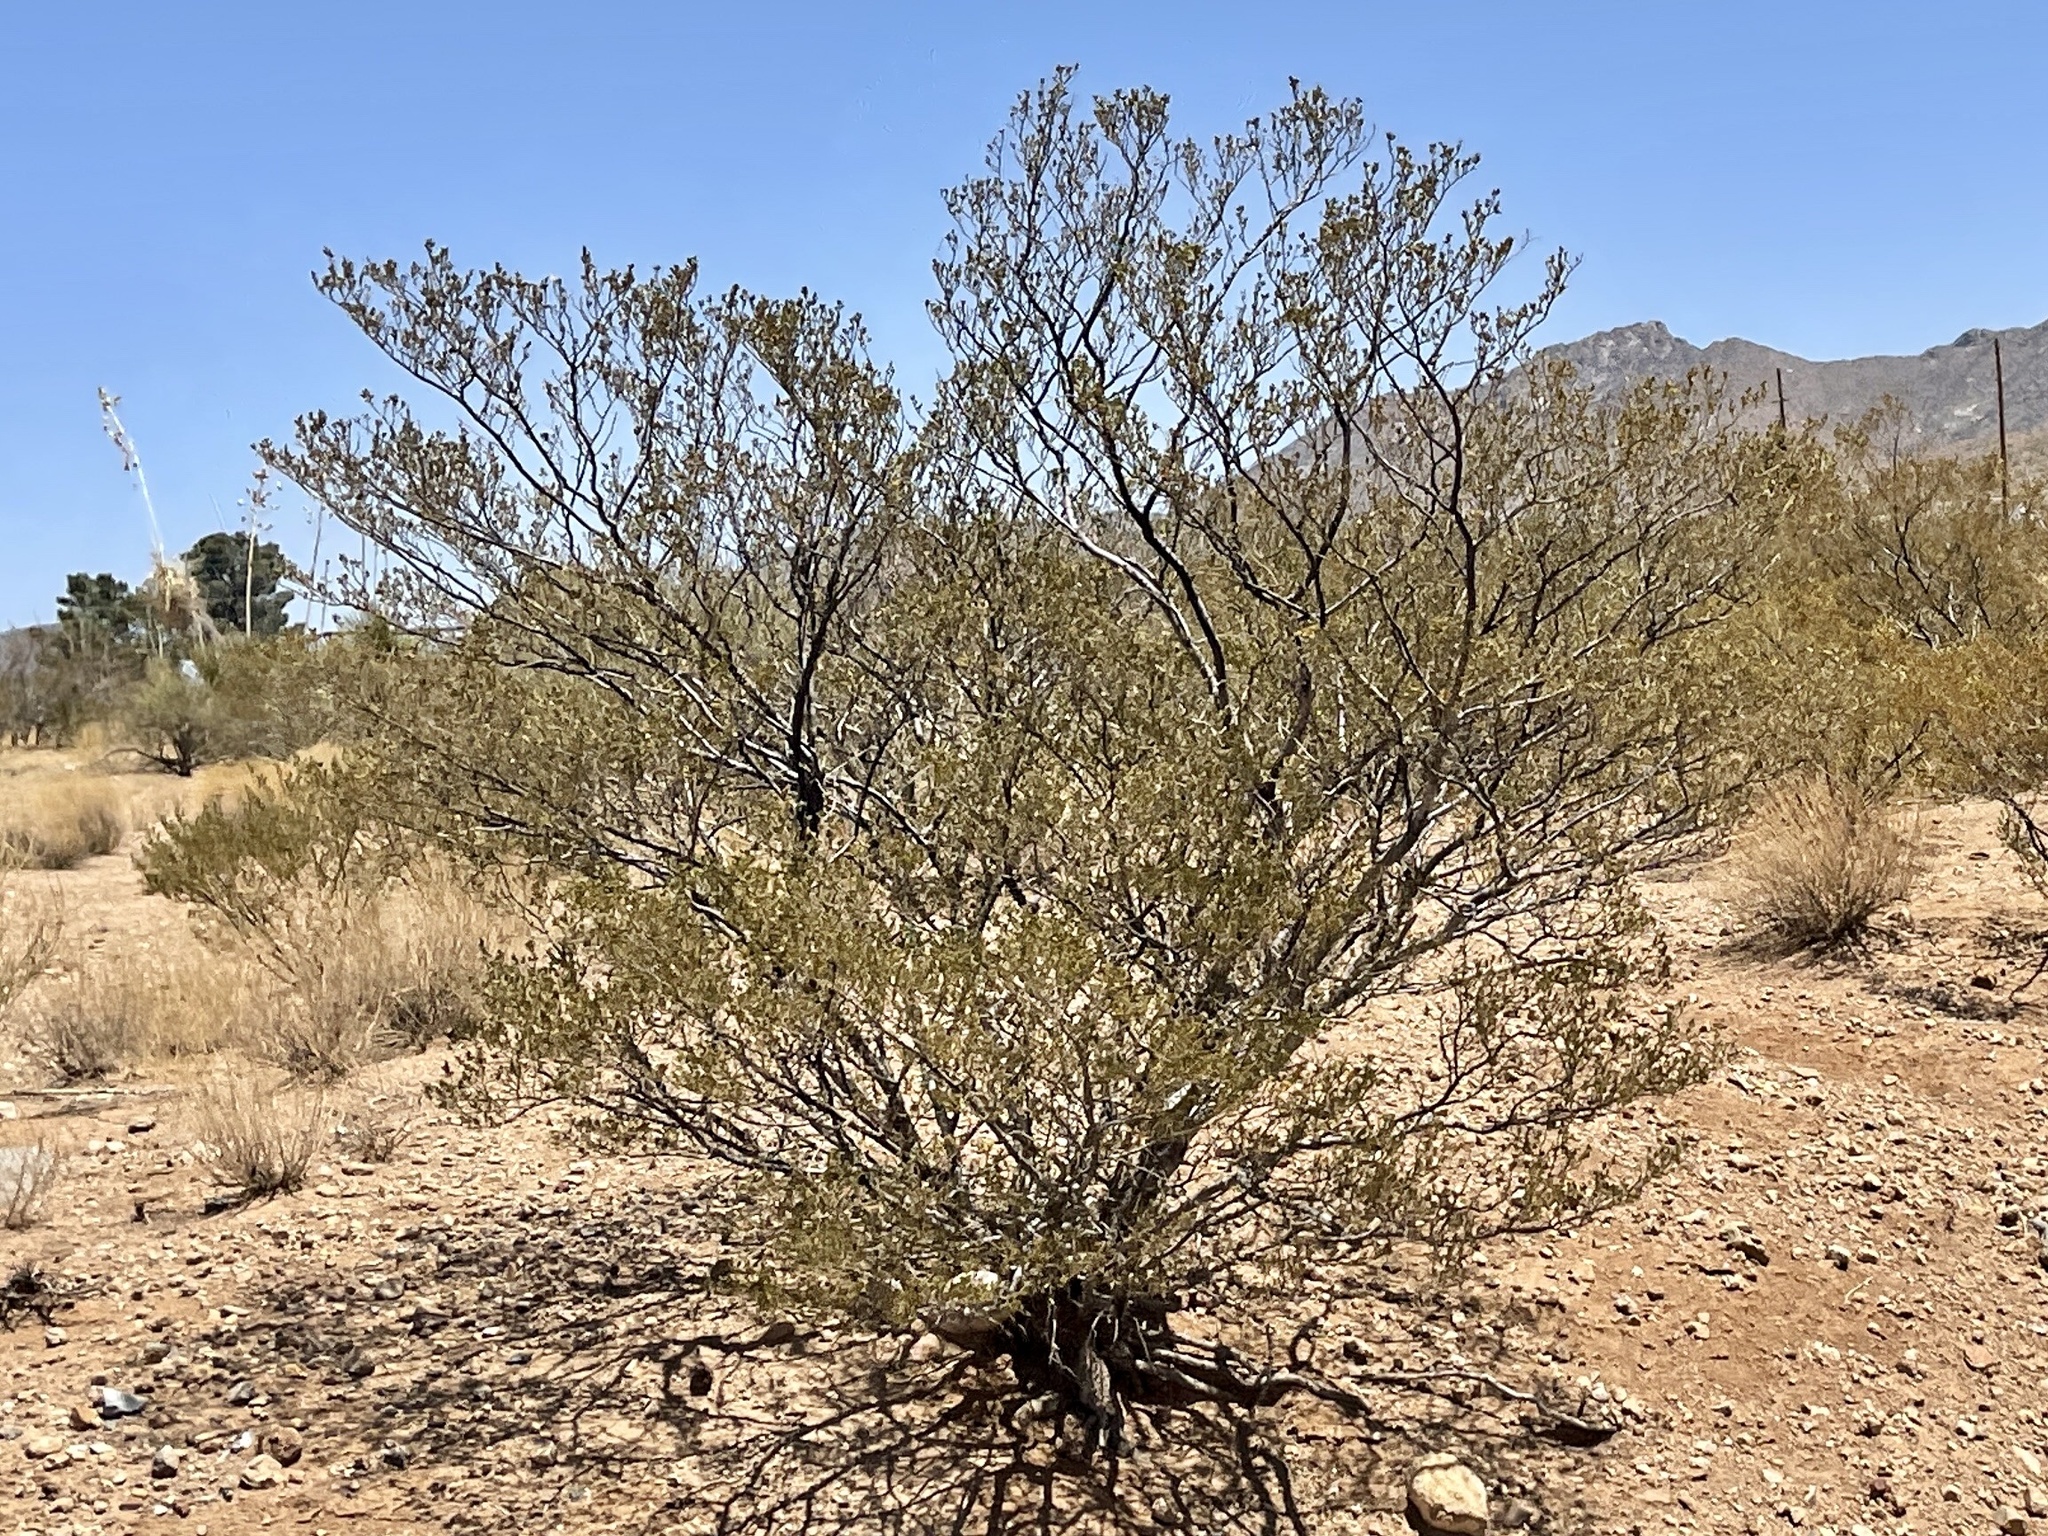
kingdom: Plantae
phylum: Tracheophyta
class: Magnoliopsida
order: Zygophyllales
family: Zygophyllaceae
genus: Larrea
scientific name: Larrea tridentata
